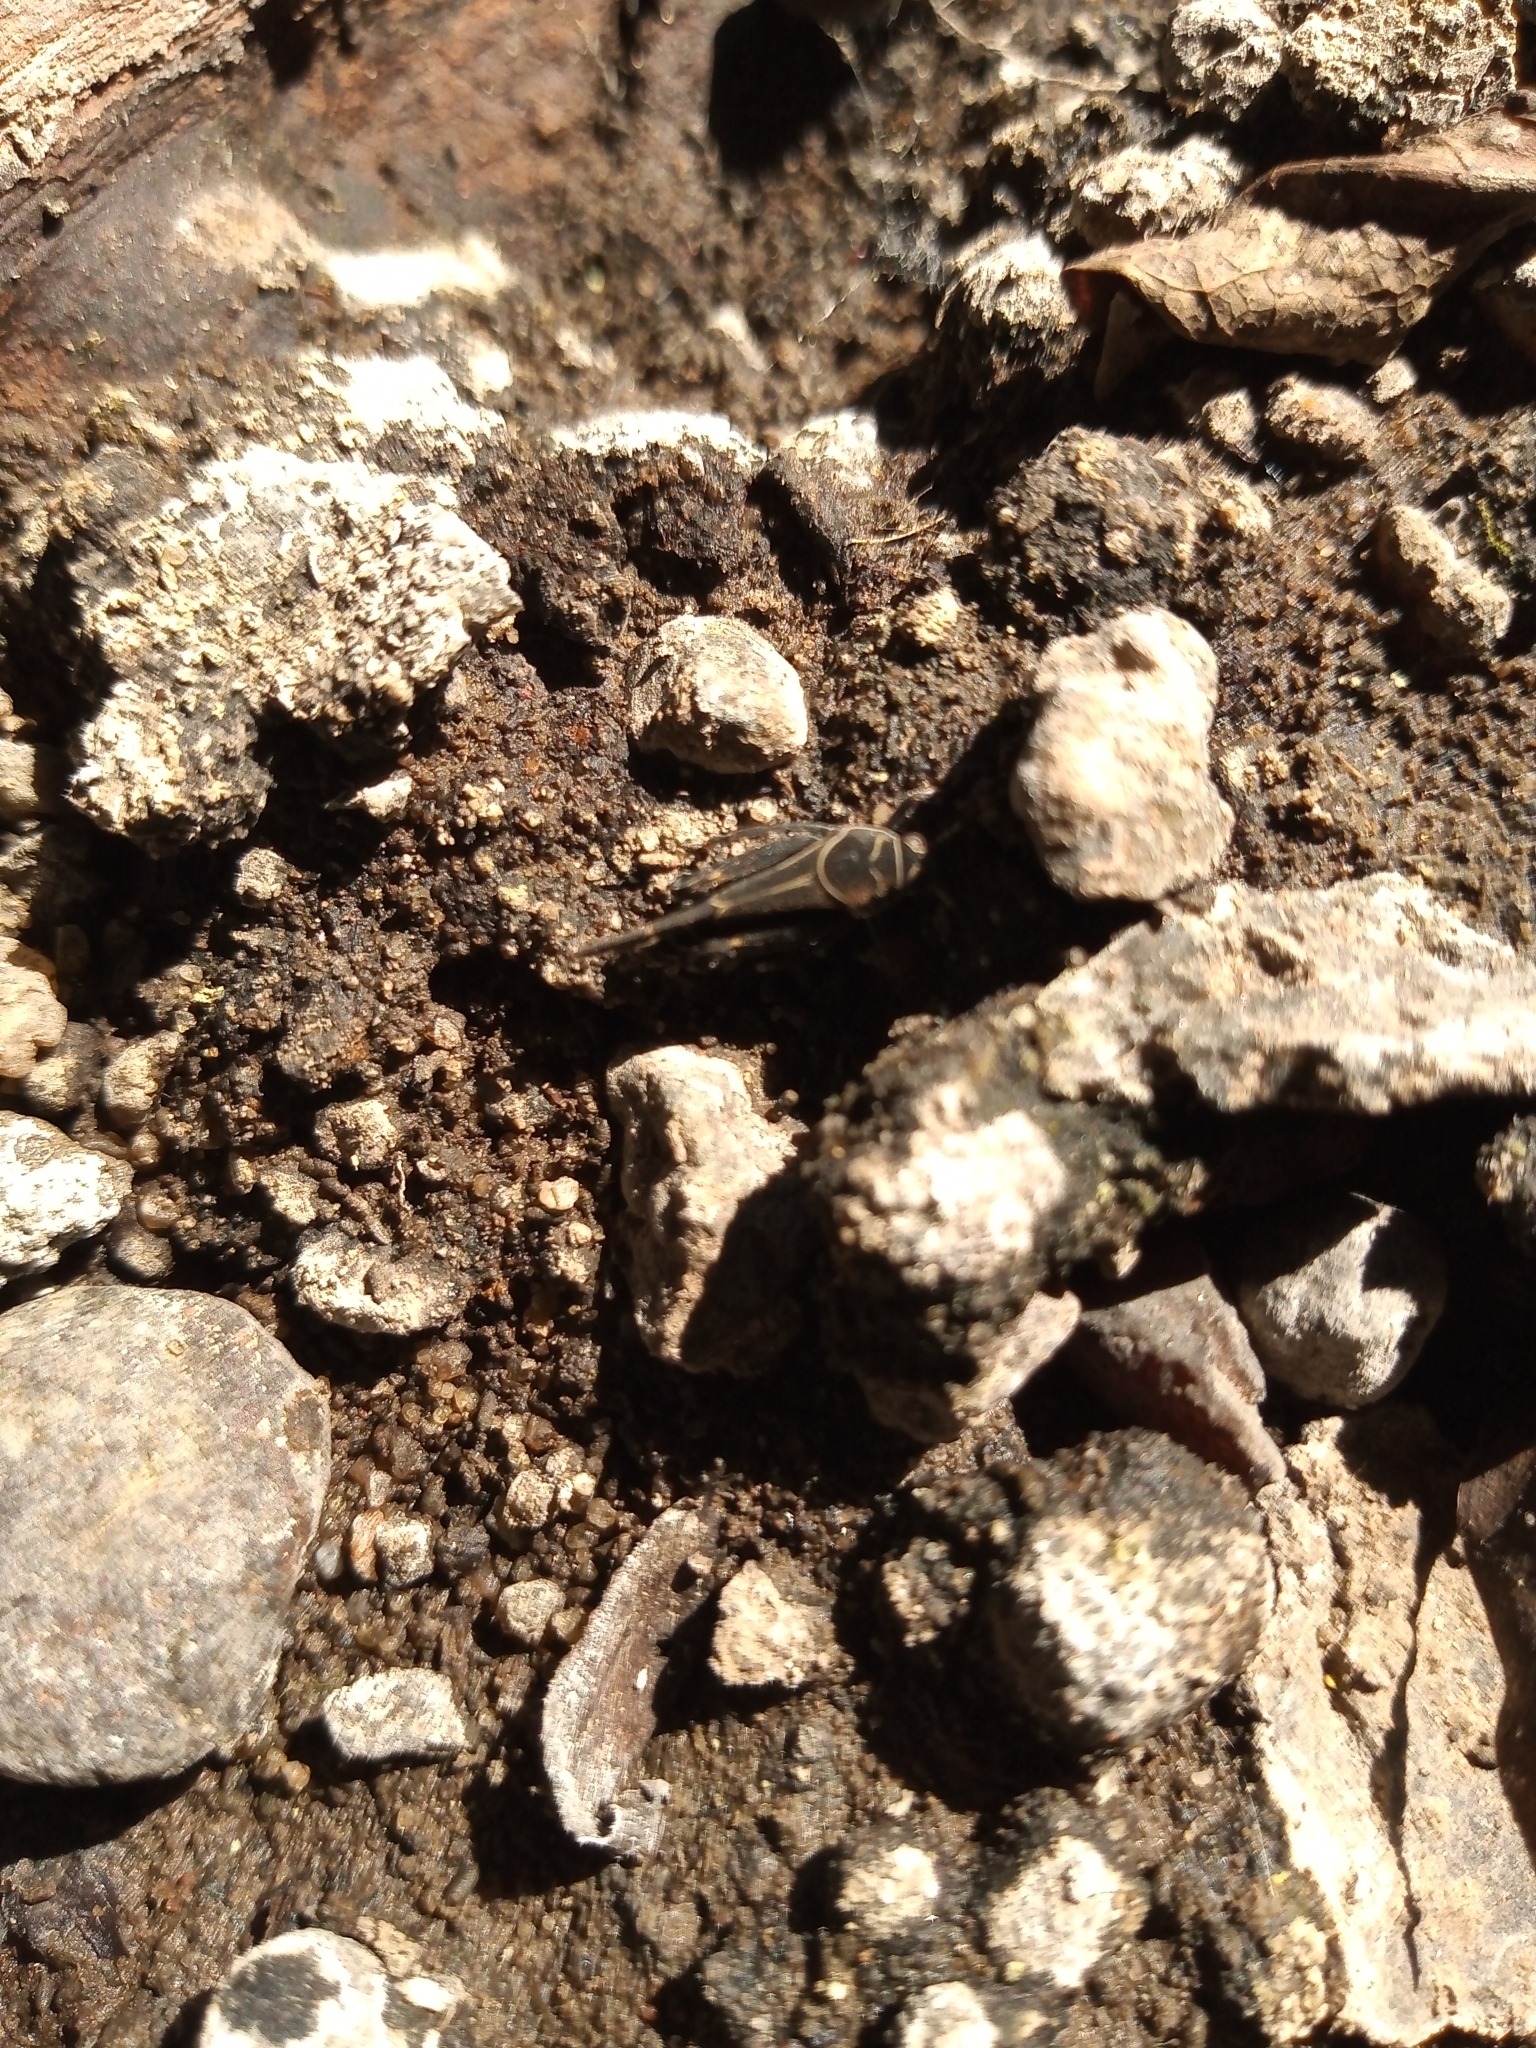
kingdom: Animalia
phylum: Arthropoda
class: Insecta
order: Orthoptera
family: Ripipterygidae
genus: Ripipteryx
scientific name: Ripipteryx notata
